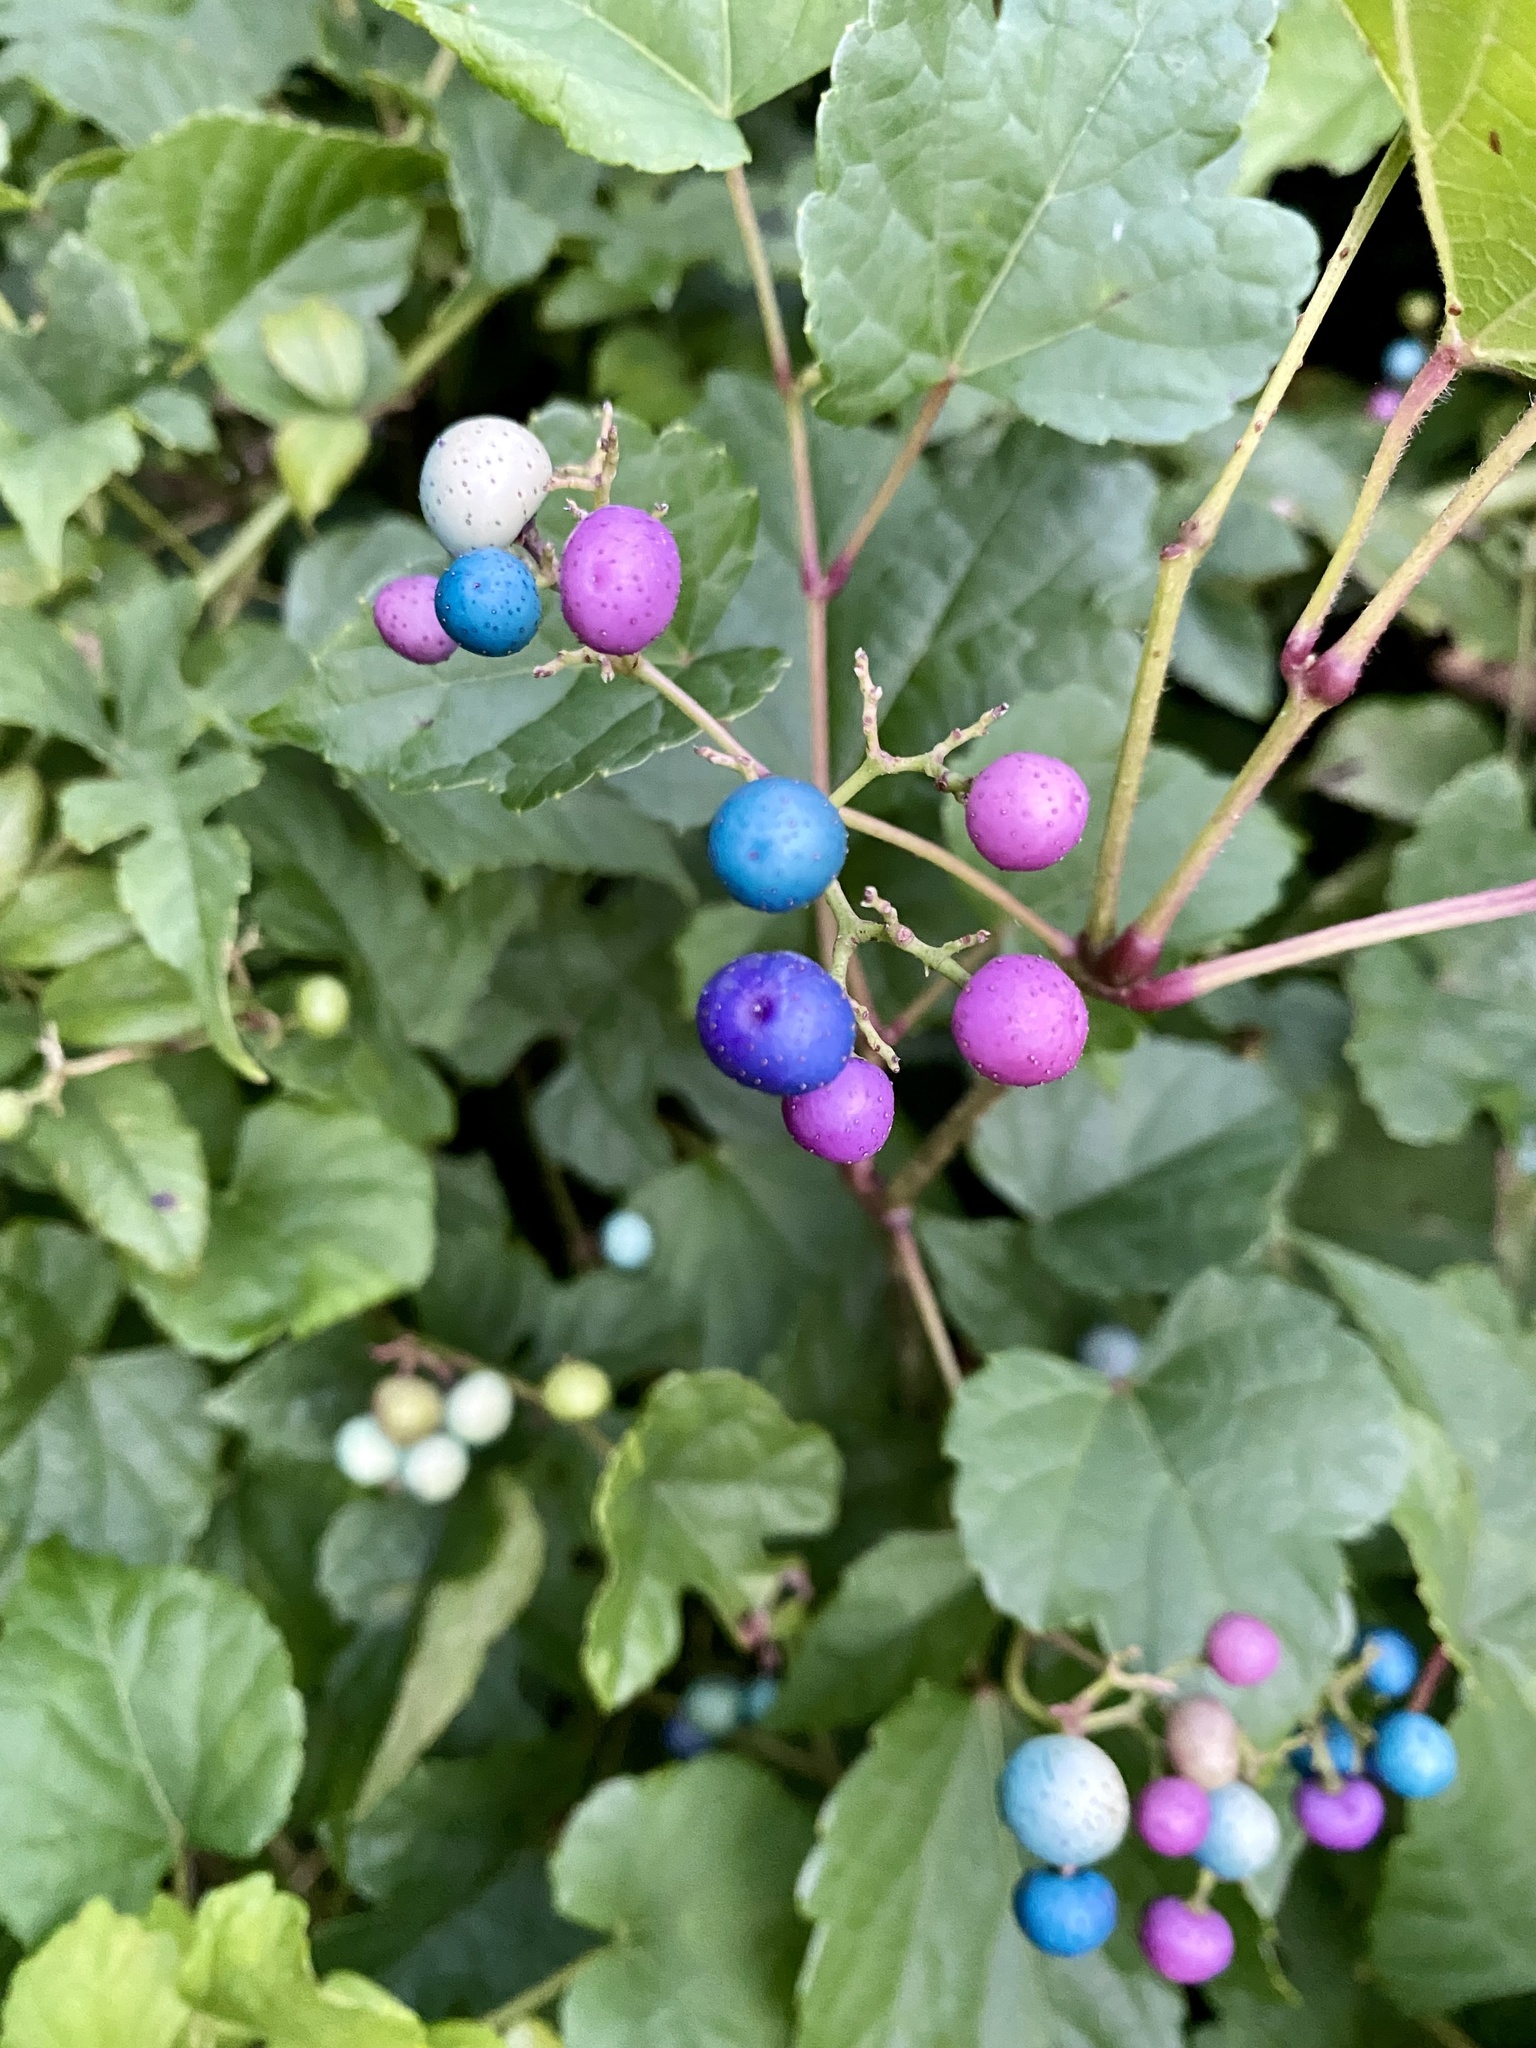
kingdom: Plantae
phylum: Tracheophyta
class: Magnoliopsida
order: Vitales
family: Vitaceae
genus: Ampelopsis
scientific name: Ampelopsis glandulosa
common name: Amur peppervine
